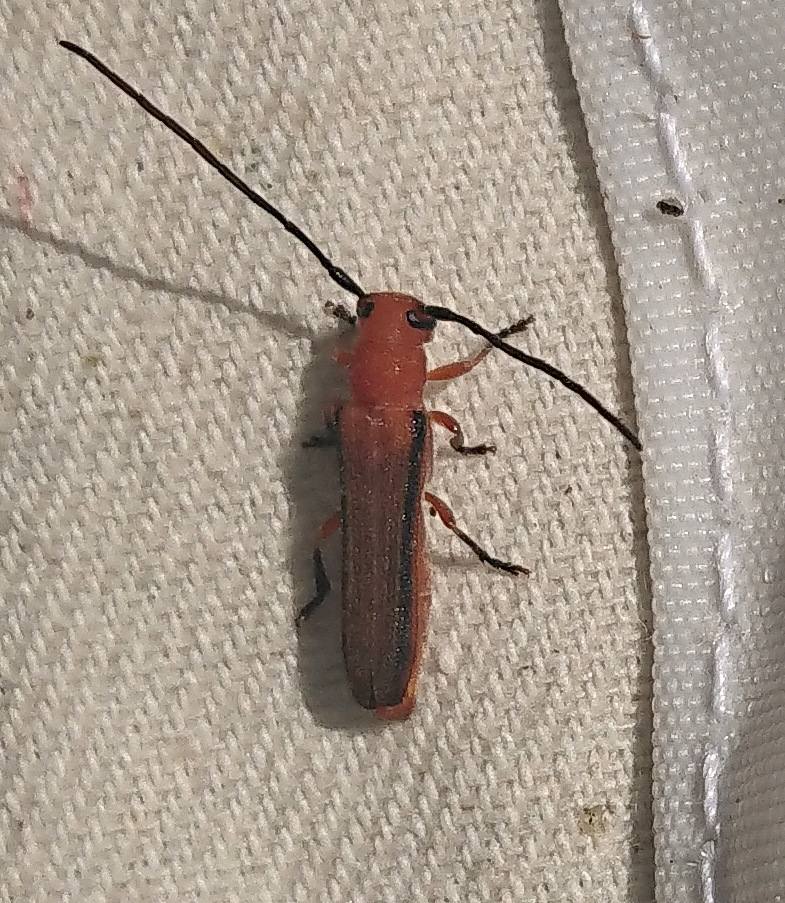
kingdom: Animalia
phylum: Arthropoda
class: Insecta
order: Coleoptera
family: Cerambycidae
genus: Oberea
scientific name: Oberea gracilis
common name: Oak sprout oberea
